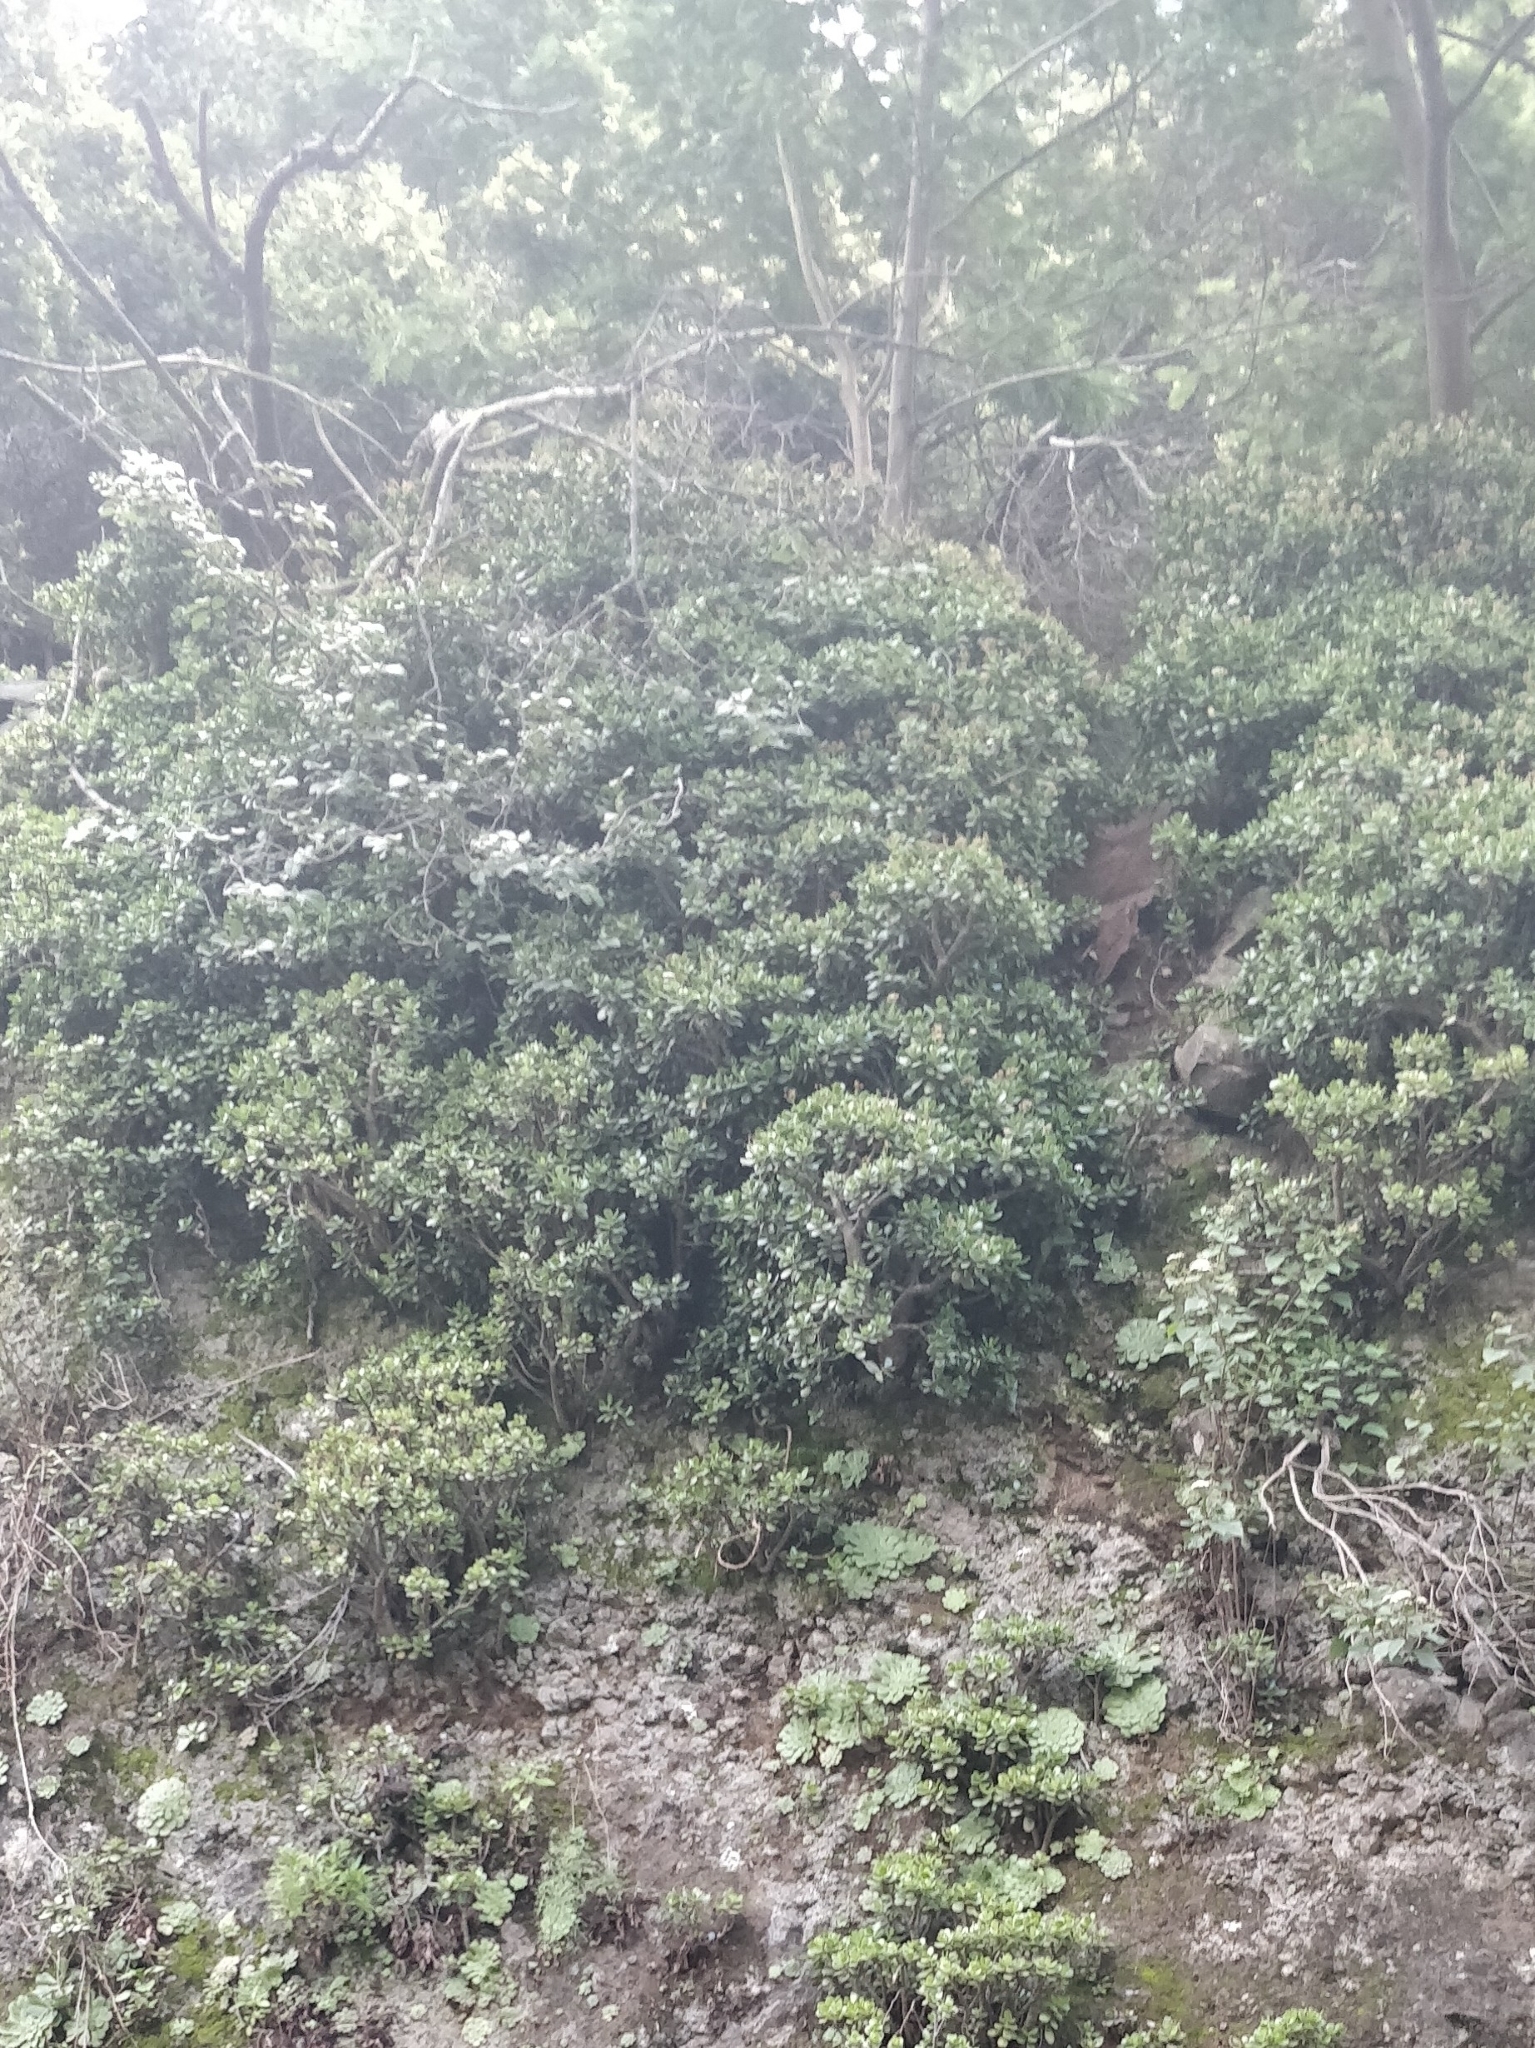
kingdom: Plantae
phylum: Tracheophyta
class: Magnoliopsida
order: Saxifragales
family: Crassulaceae
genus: Crassula
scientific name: Crassula ovata
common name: Jade plant
